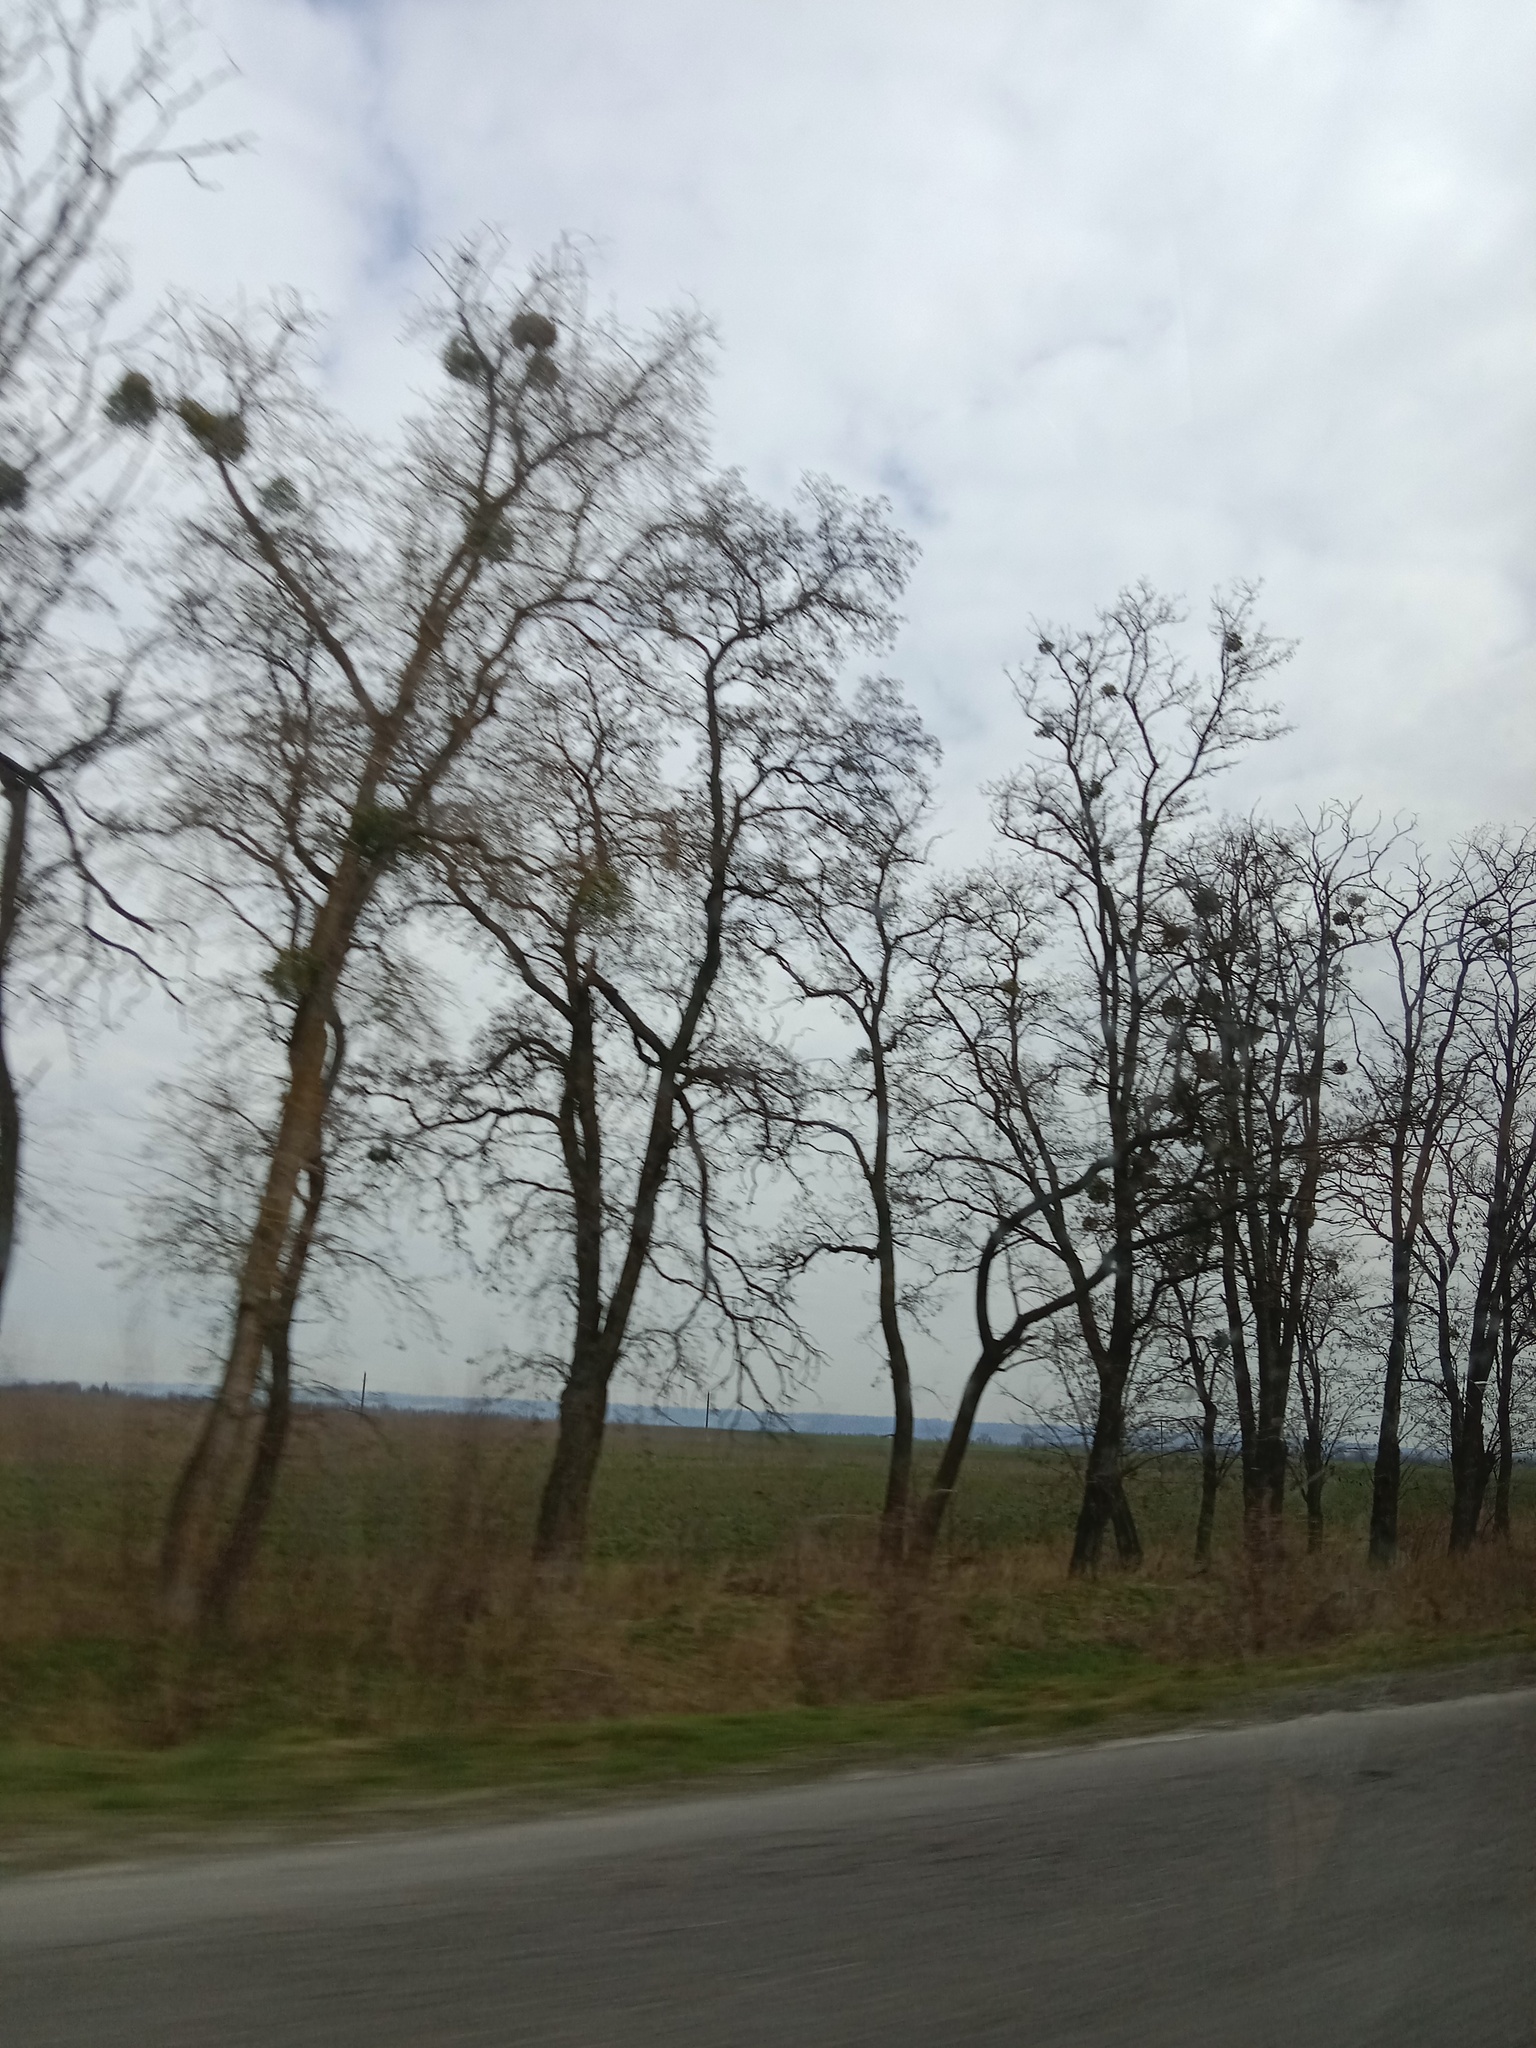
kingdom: Plantae
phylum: Tracheophyta
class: Magnoliopsida
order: Santalales
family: Viscaceae
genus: Viscum
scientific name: Viscum album
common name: Mistletoe
